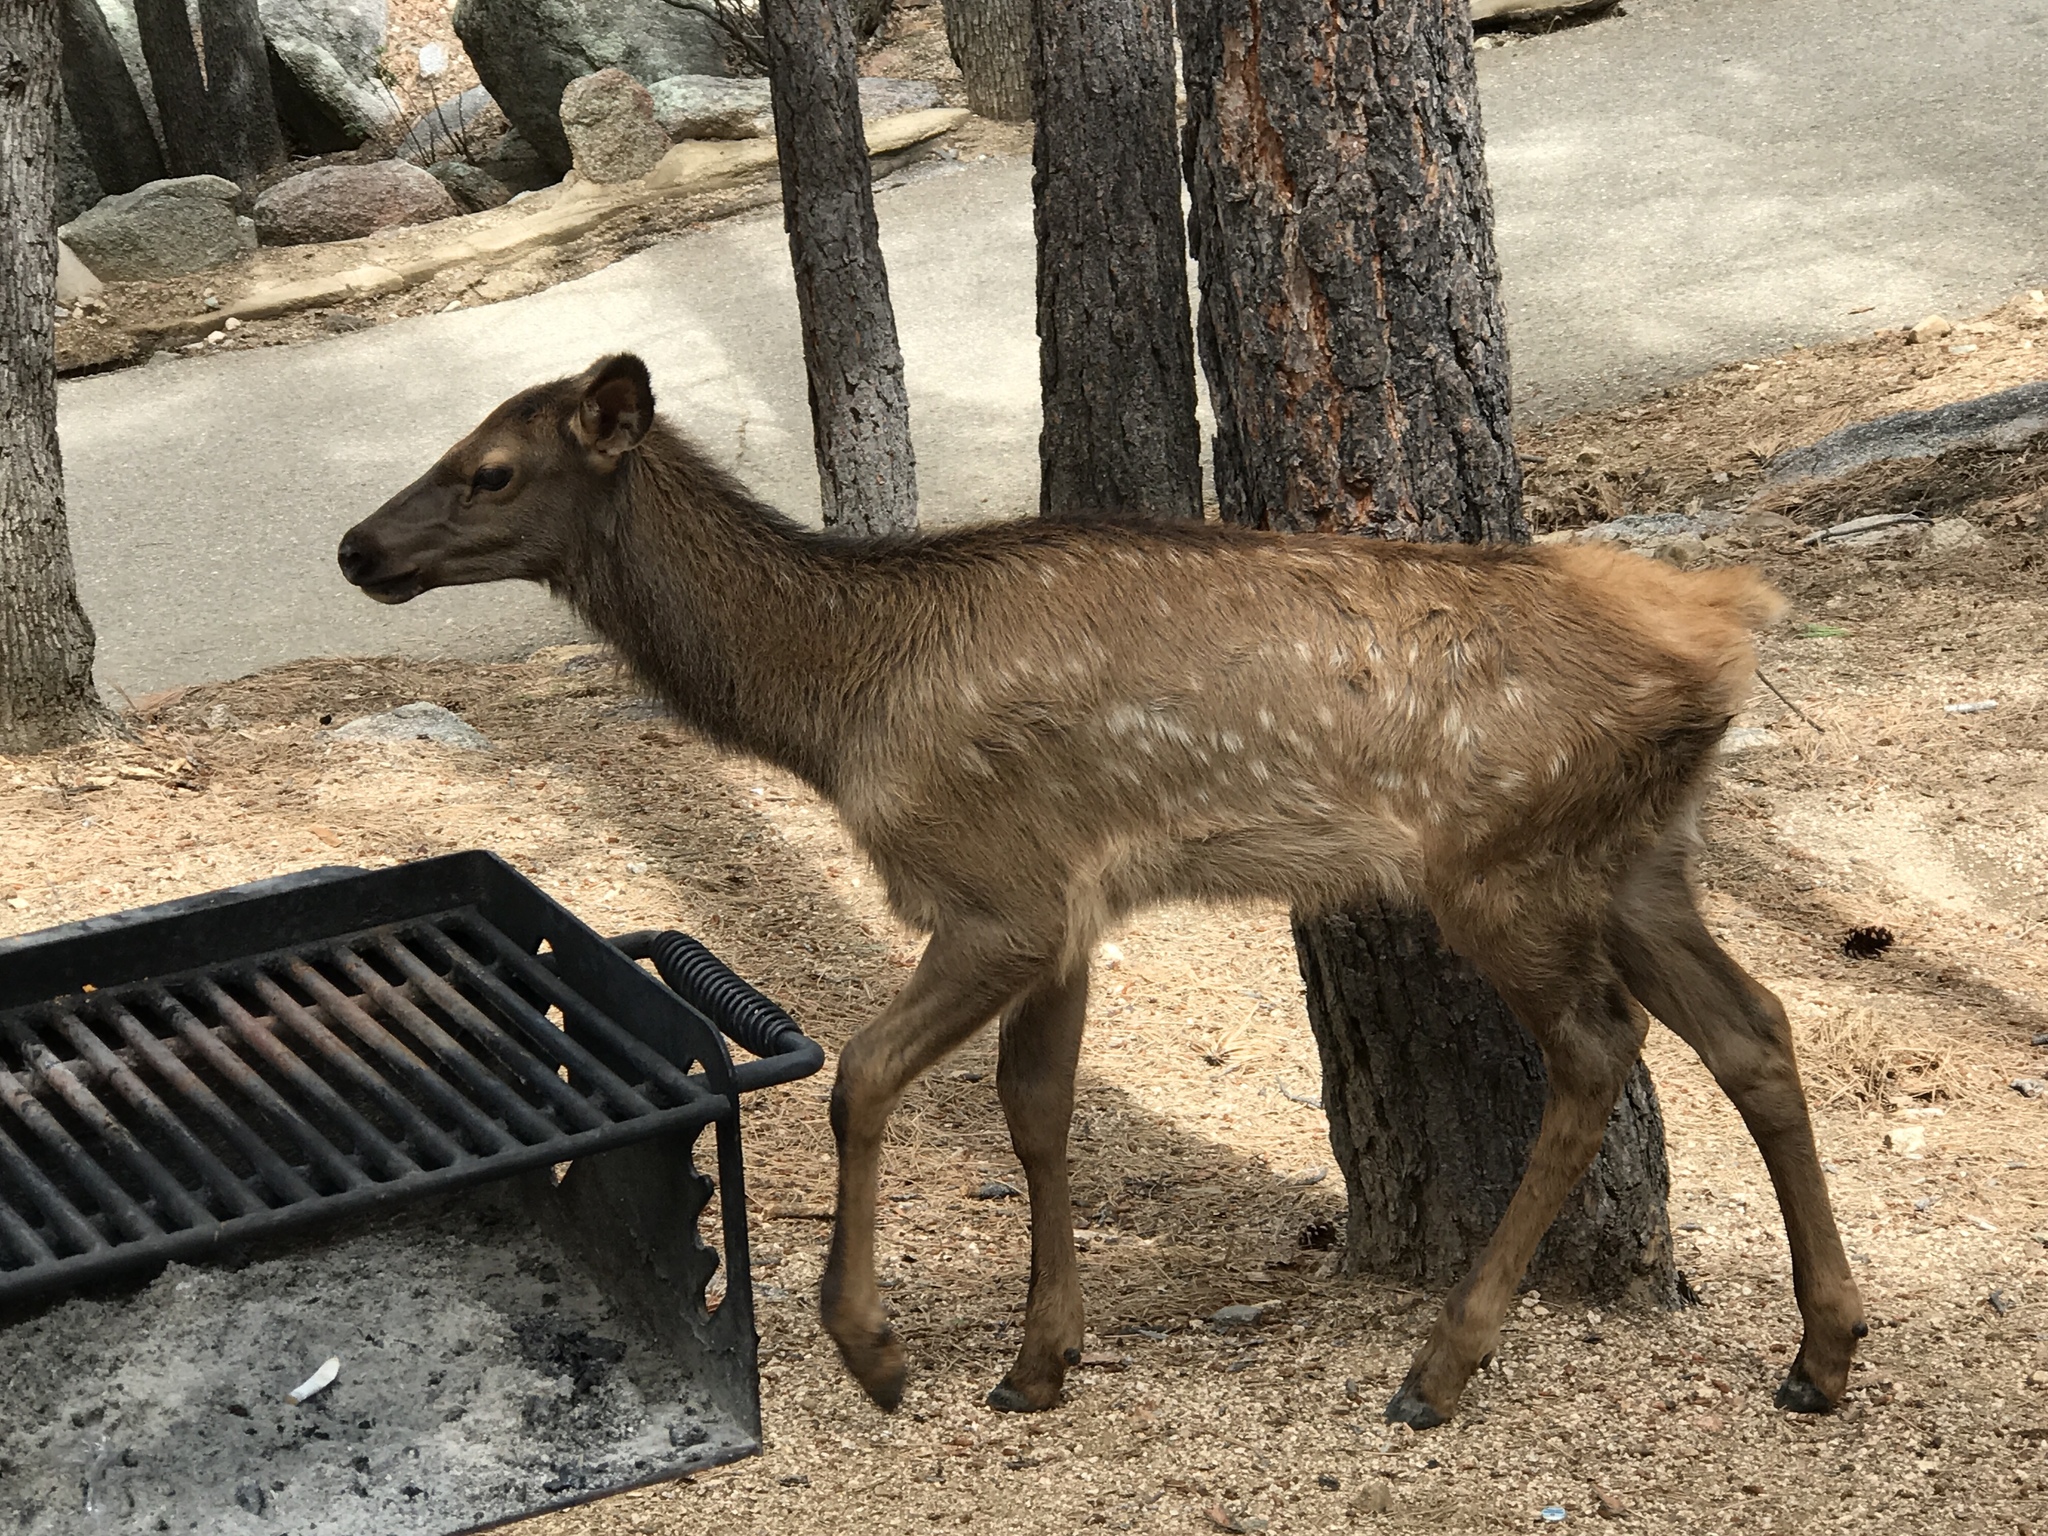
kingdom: Animalia
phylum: Chordata
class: Mammalia
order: Artiodactyla
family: Cervidae
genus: Cervus
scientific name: Cervus elaphus
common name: Red deer
